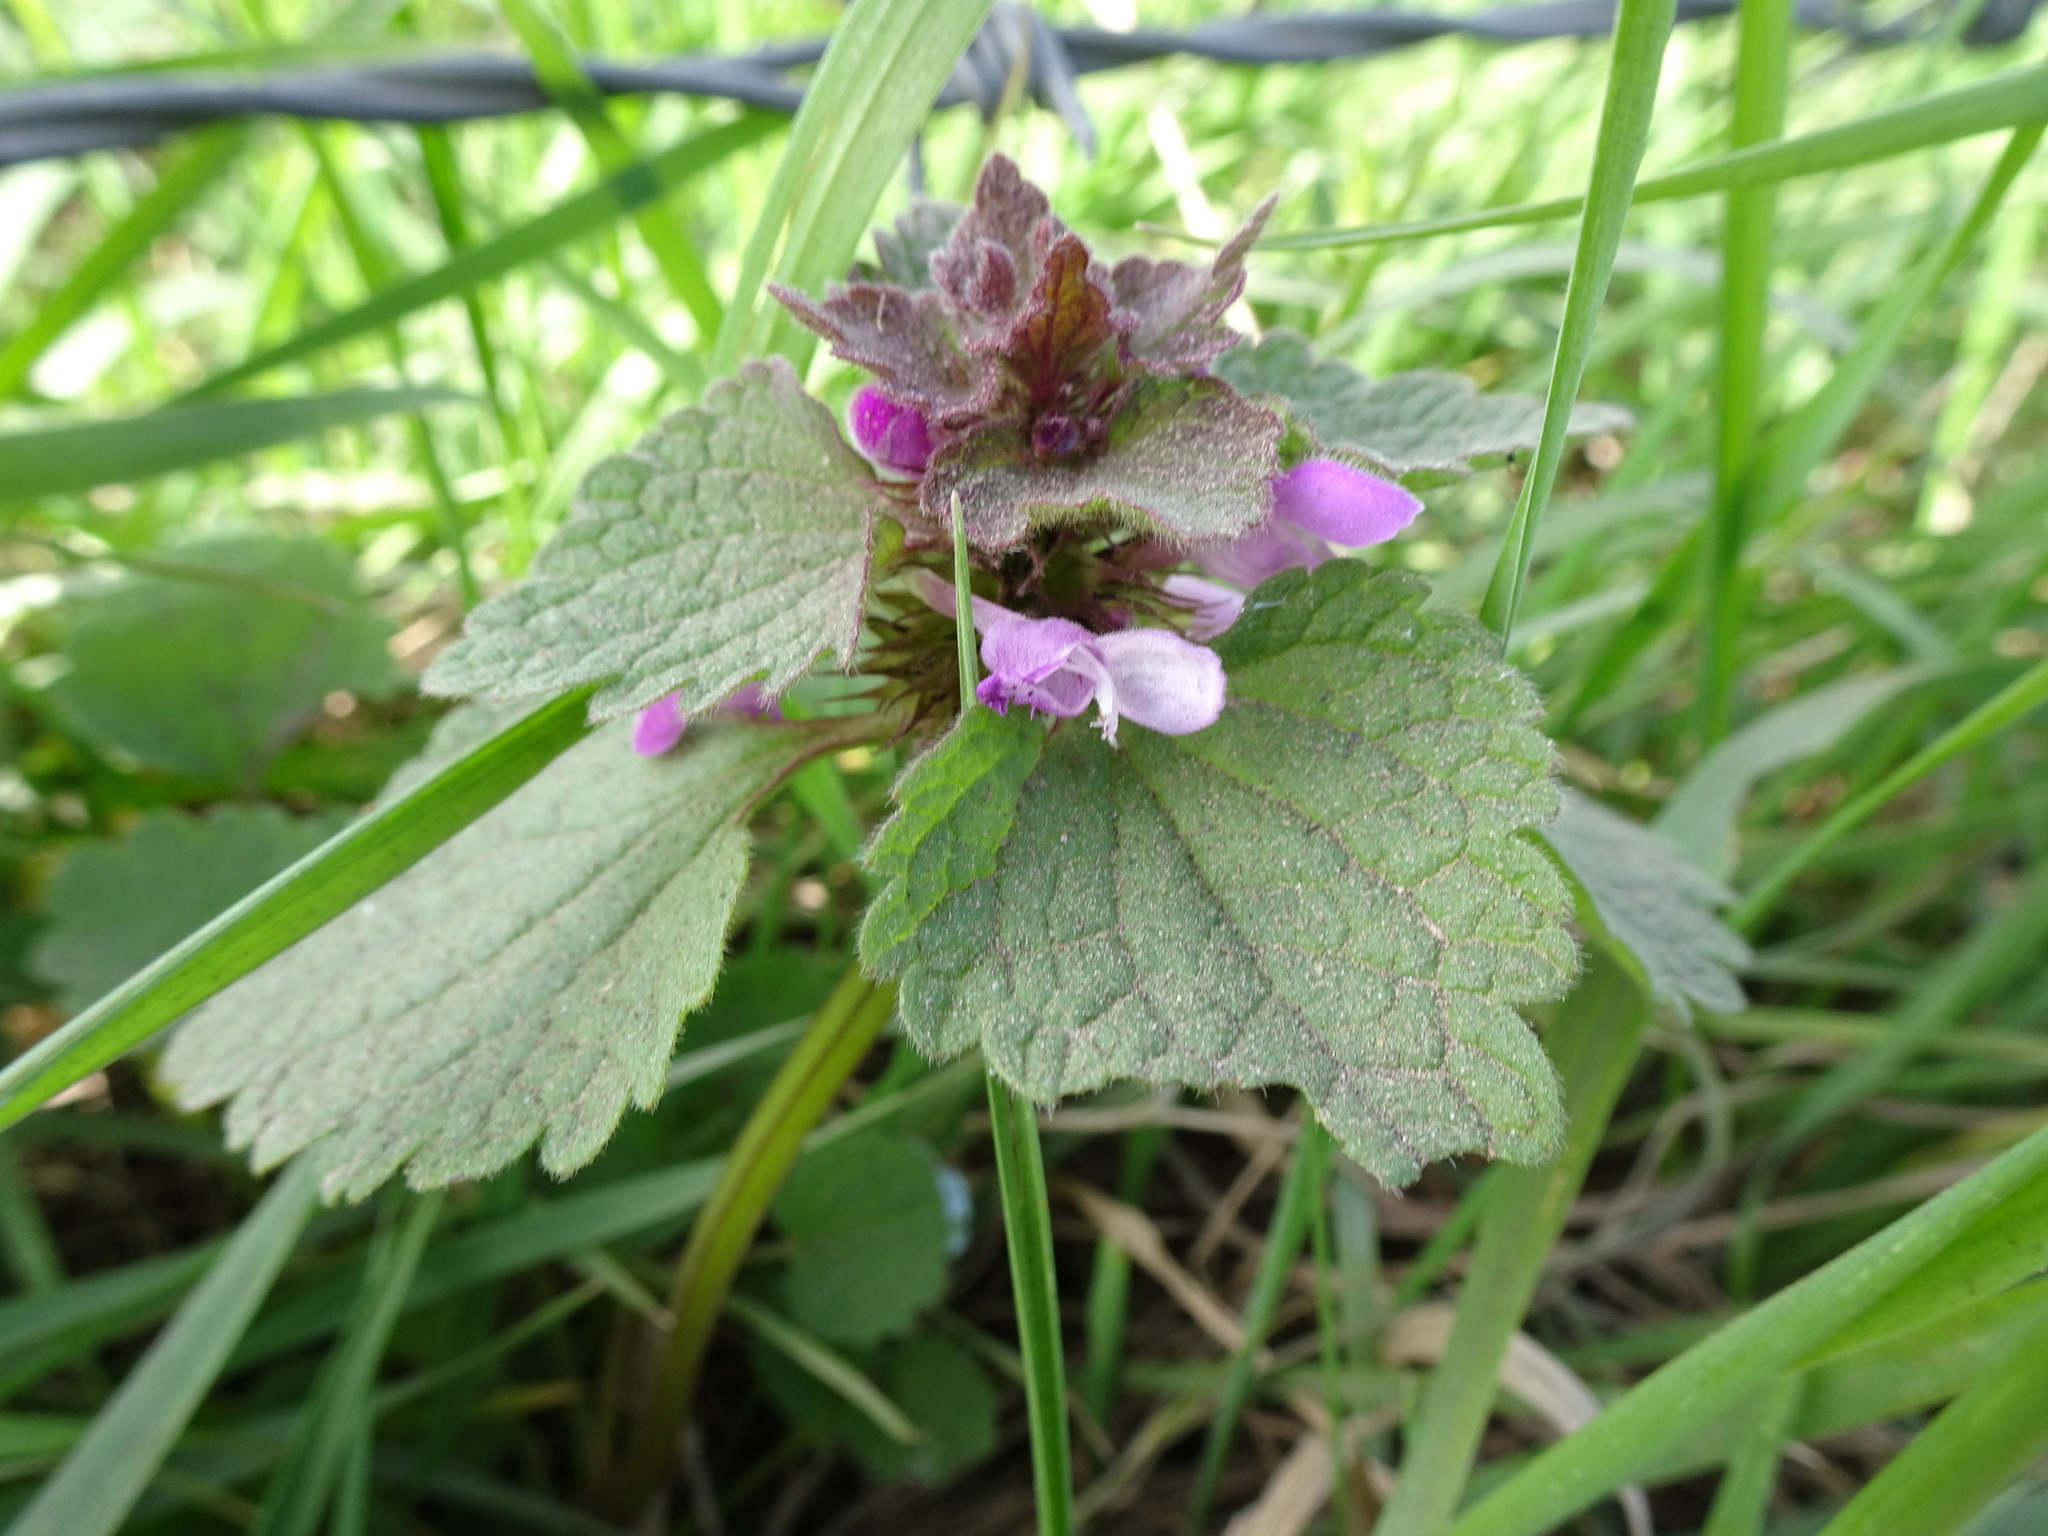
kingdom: Plantae
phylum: Tracheophyta
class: Magnoliopsida
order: Lamiales
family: Lamiaceae
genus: Lamium
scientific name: Lamium purpureum
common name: Red dead-nettle
